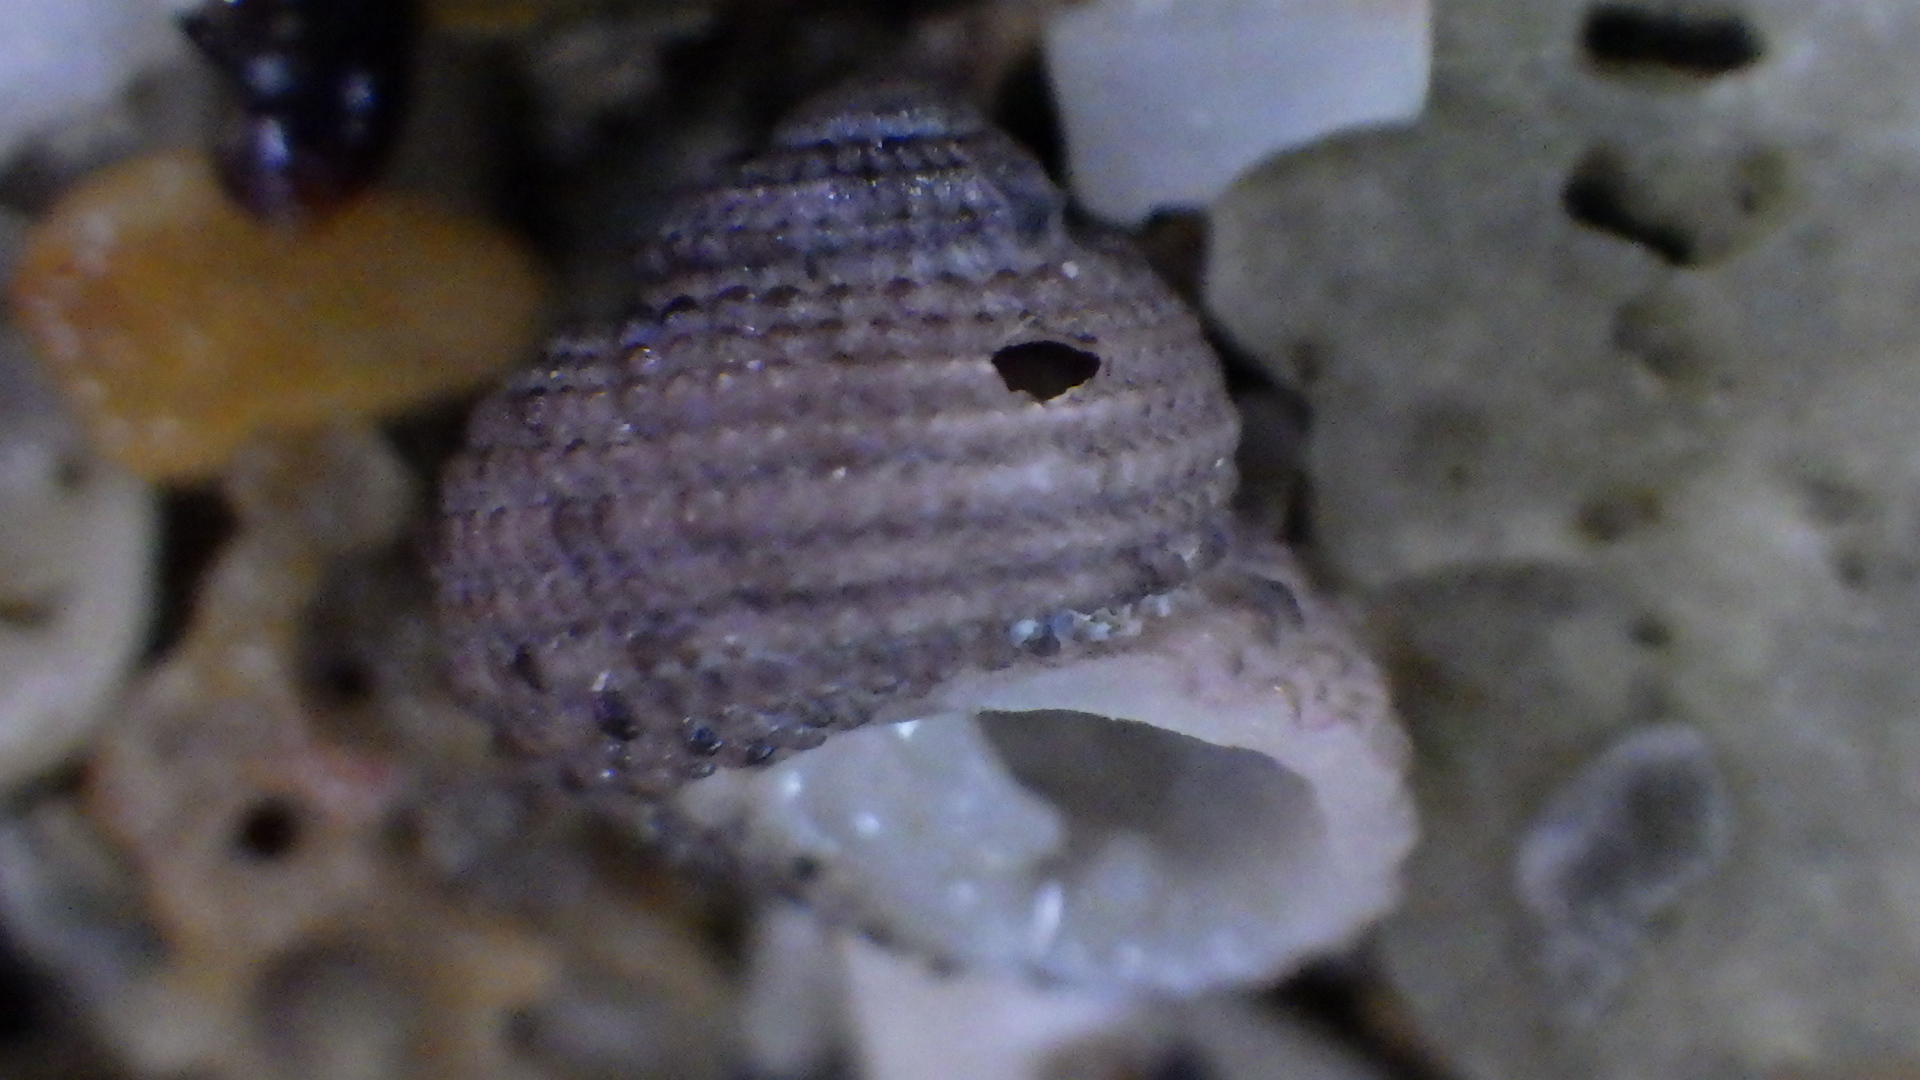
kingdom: Animalia
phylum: Mollusca
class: Gastropoda
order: Seguenziida
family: Chilodontaidae
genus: Herpetopoma
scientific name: Herpetopoma bellum
